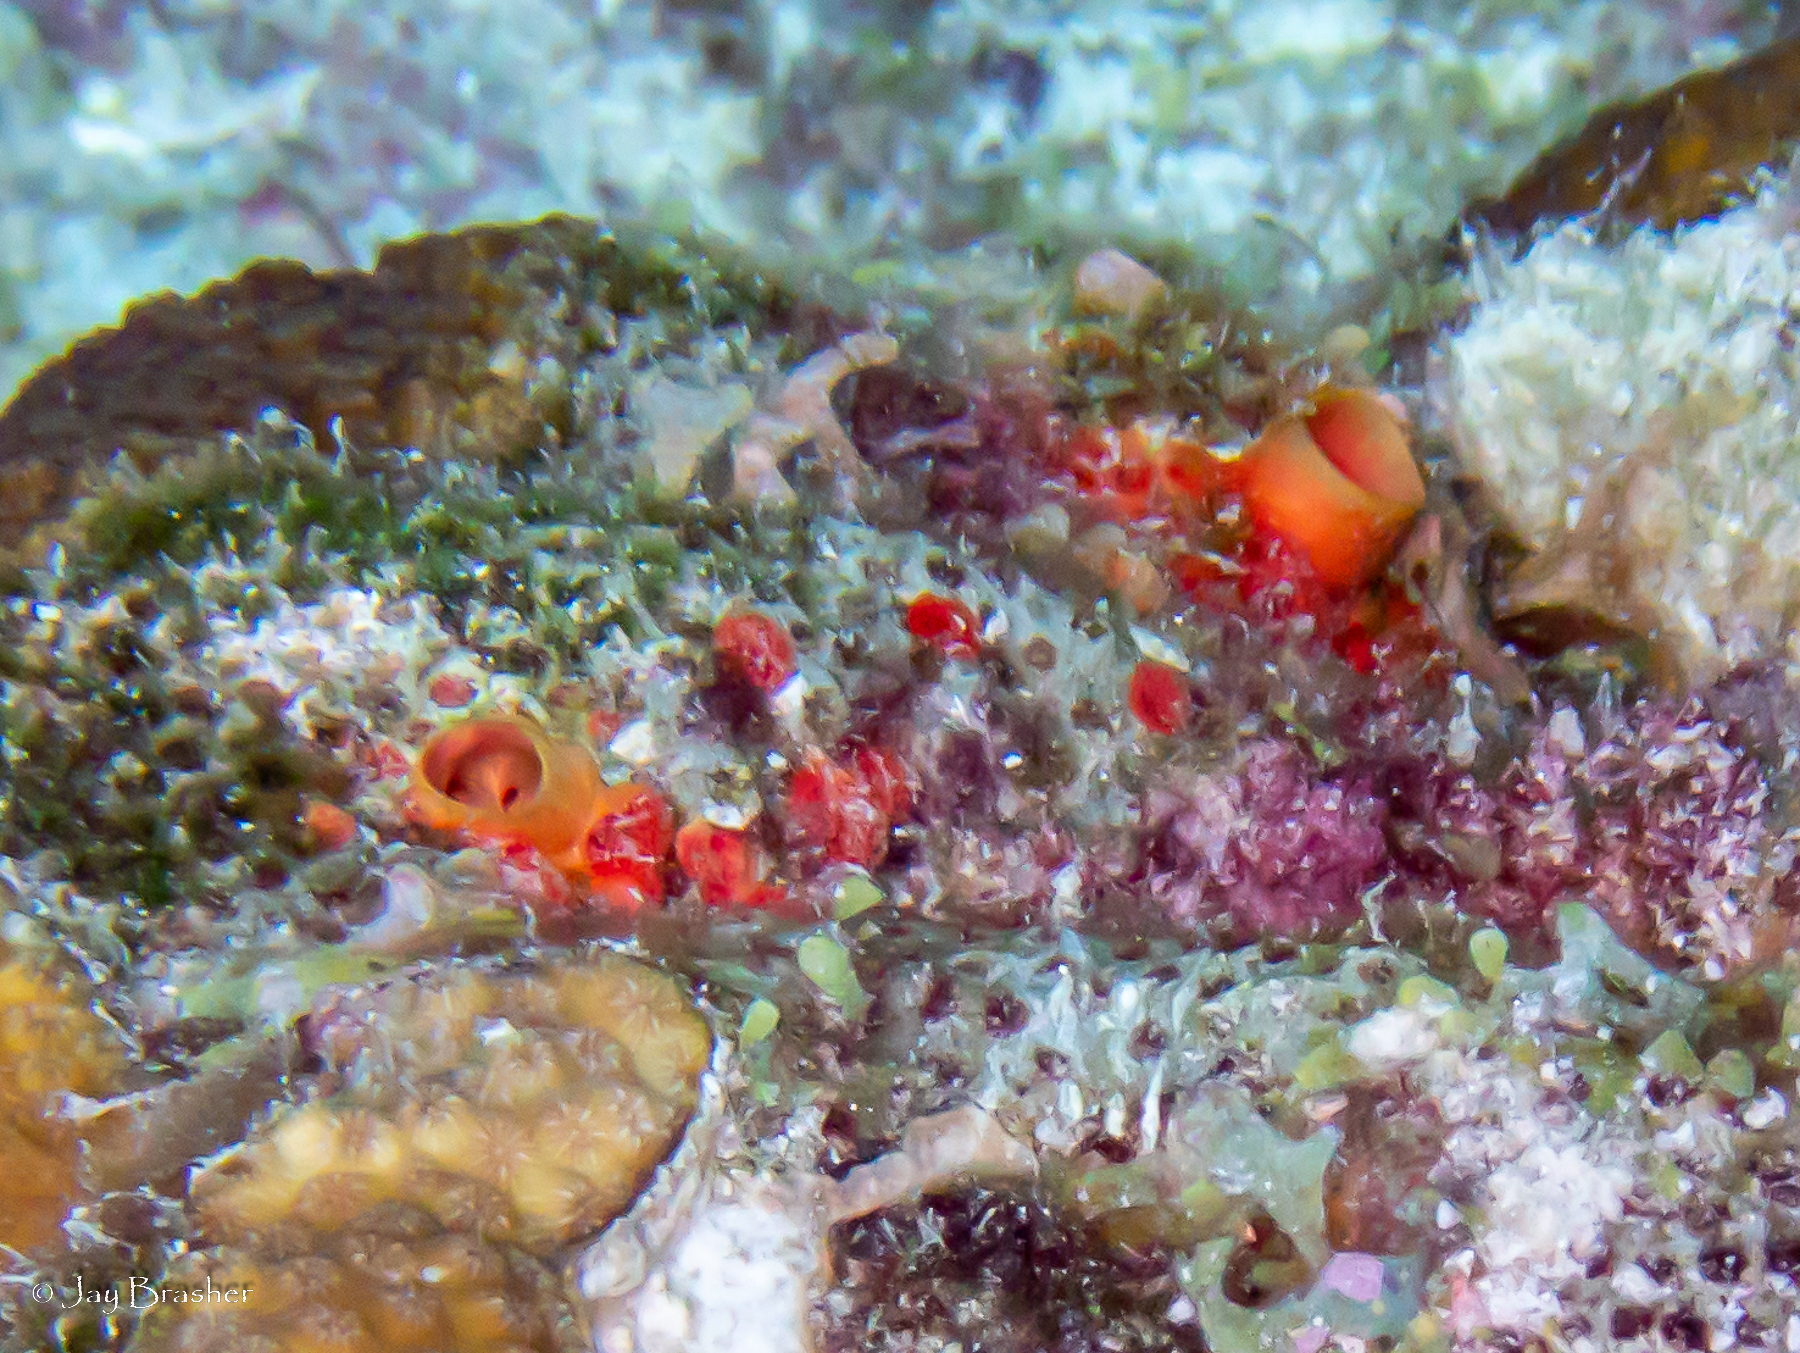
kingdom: Animalia
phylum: Porifera
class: Demospongiae
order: Clionaida
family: Clionaidae
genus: Cliothosa
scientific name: Cliothosa delitrix
